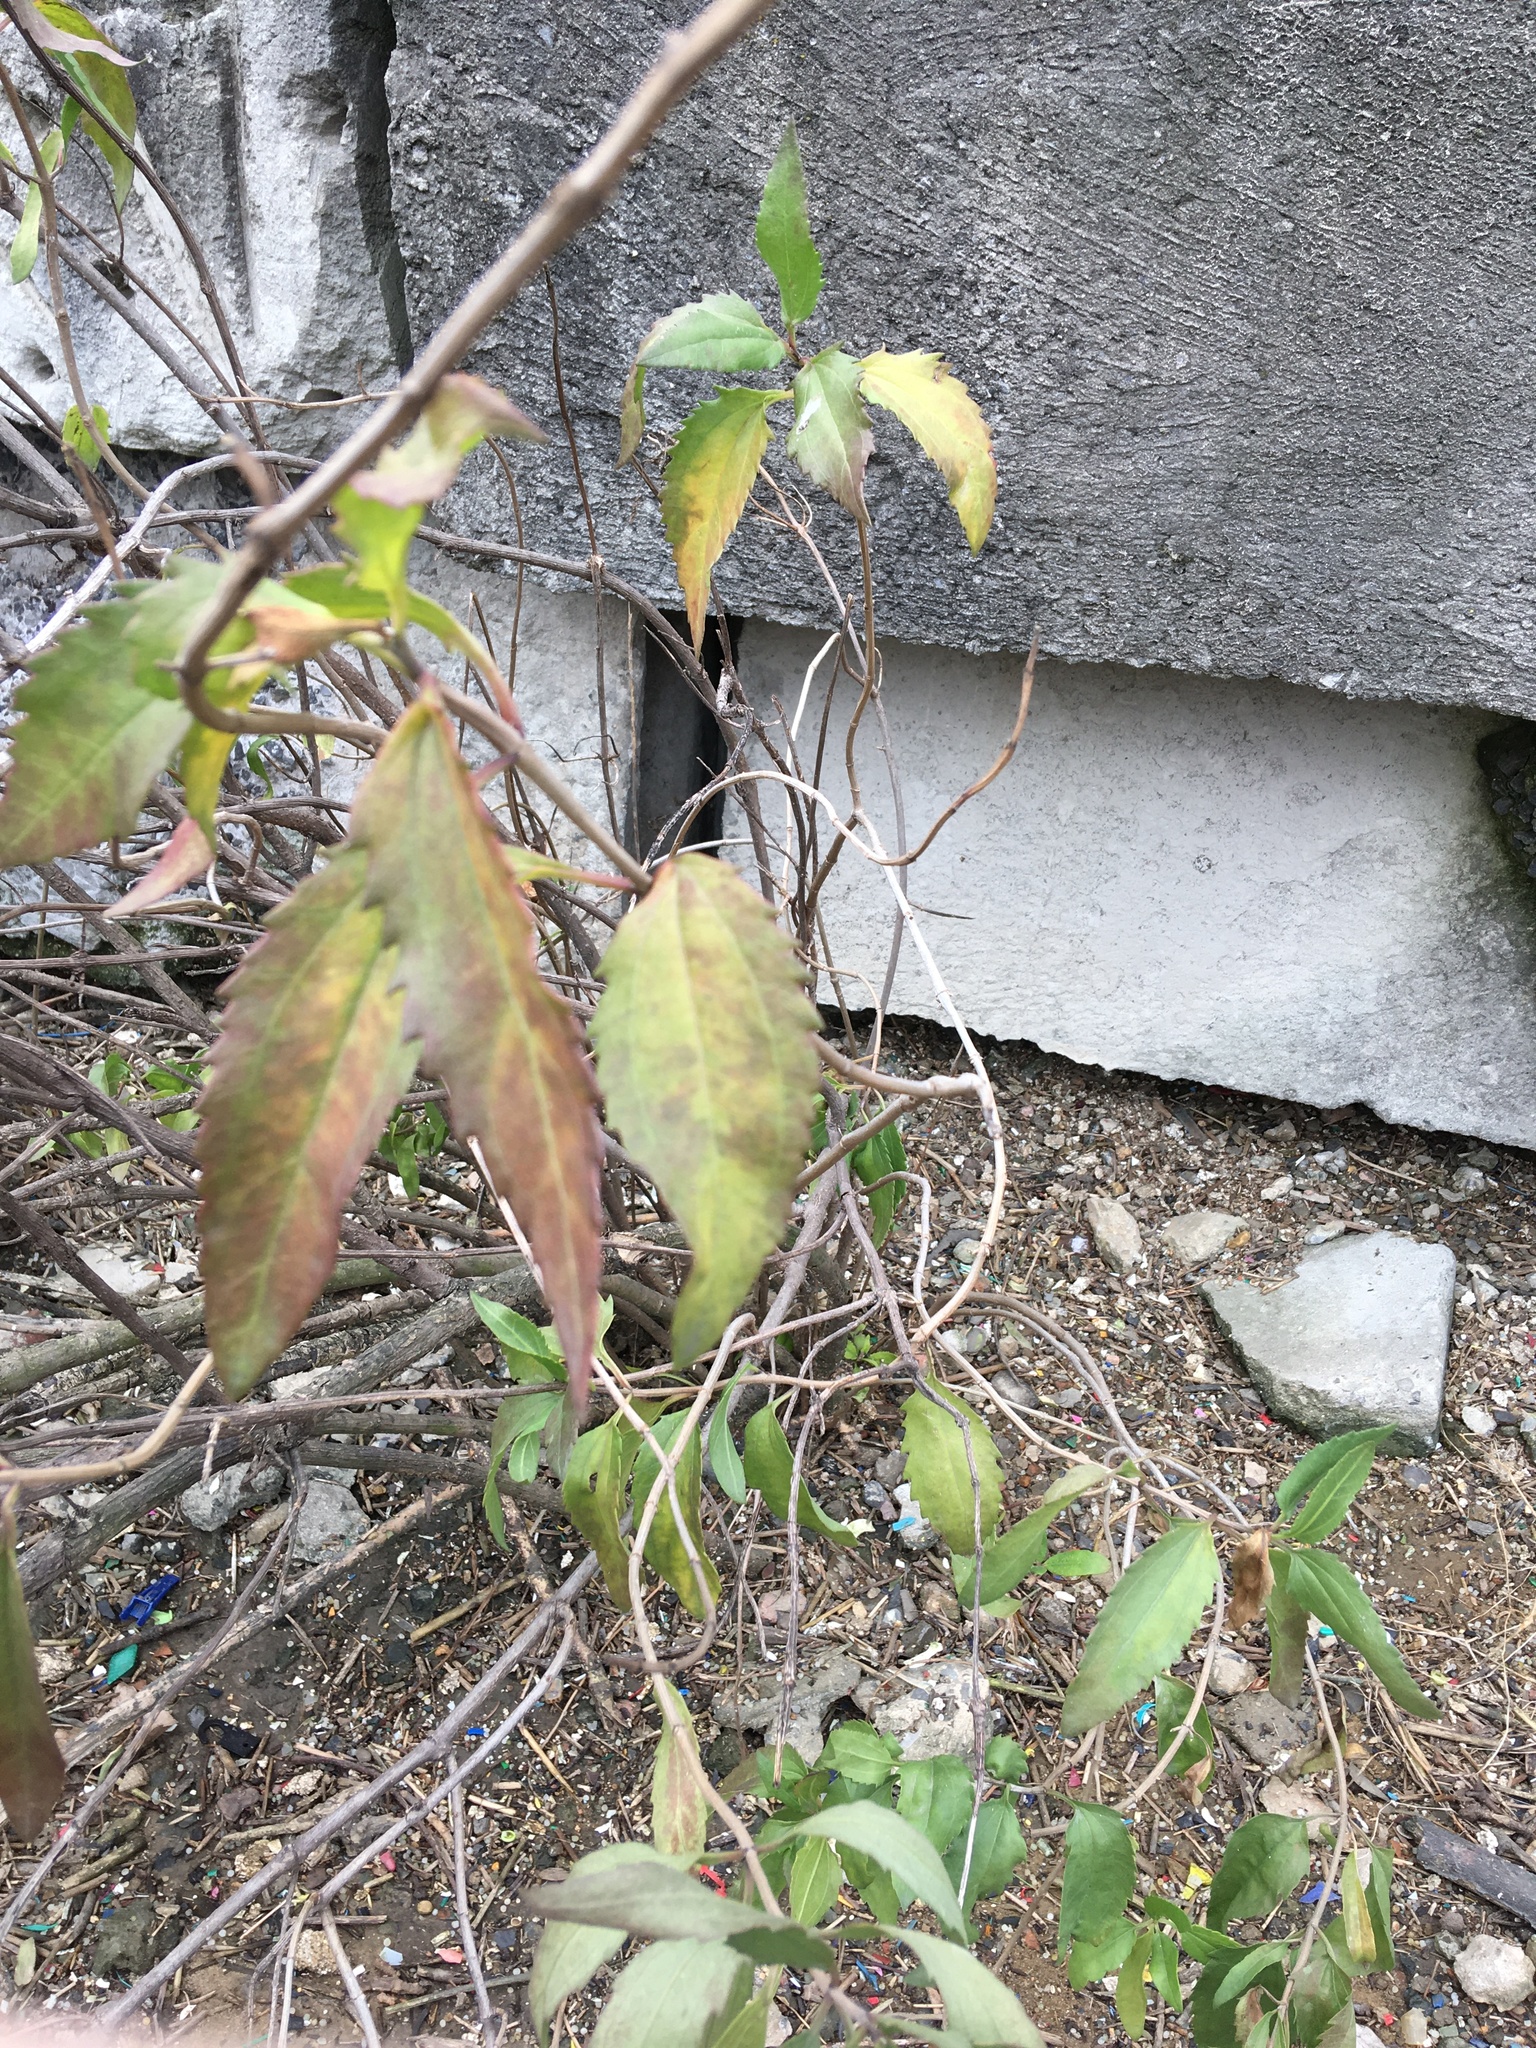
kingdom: Plantae
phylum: Tracheophyta
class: Magnoliopsida
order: Asterales
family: Asteraceae
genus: Iva
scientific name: Iva frutescens
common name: Big-leaved marsh-elder
